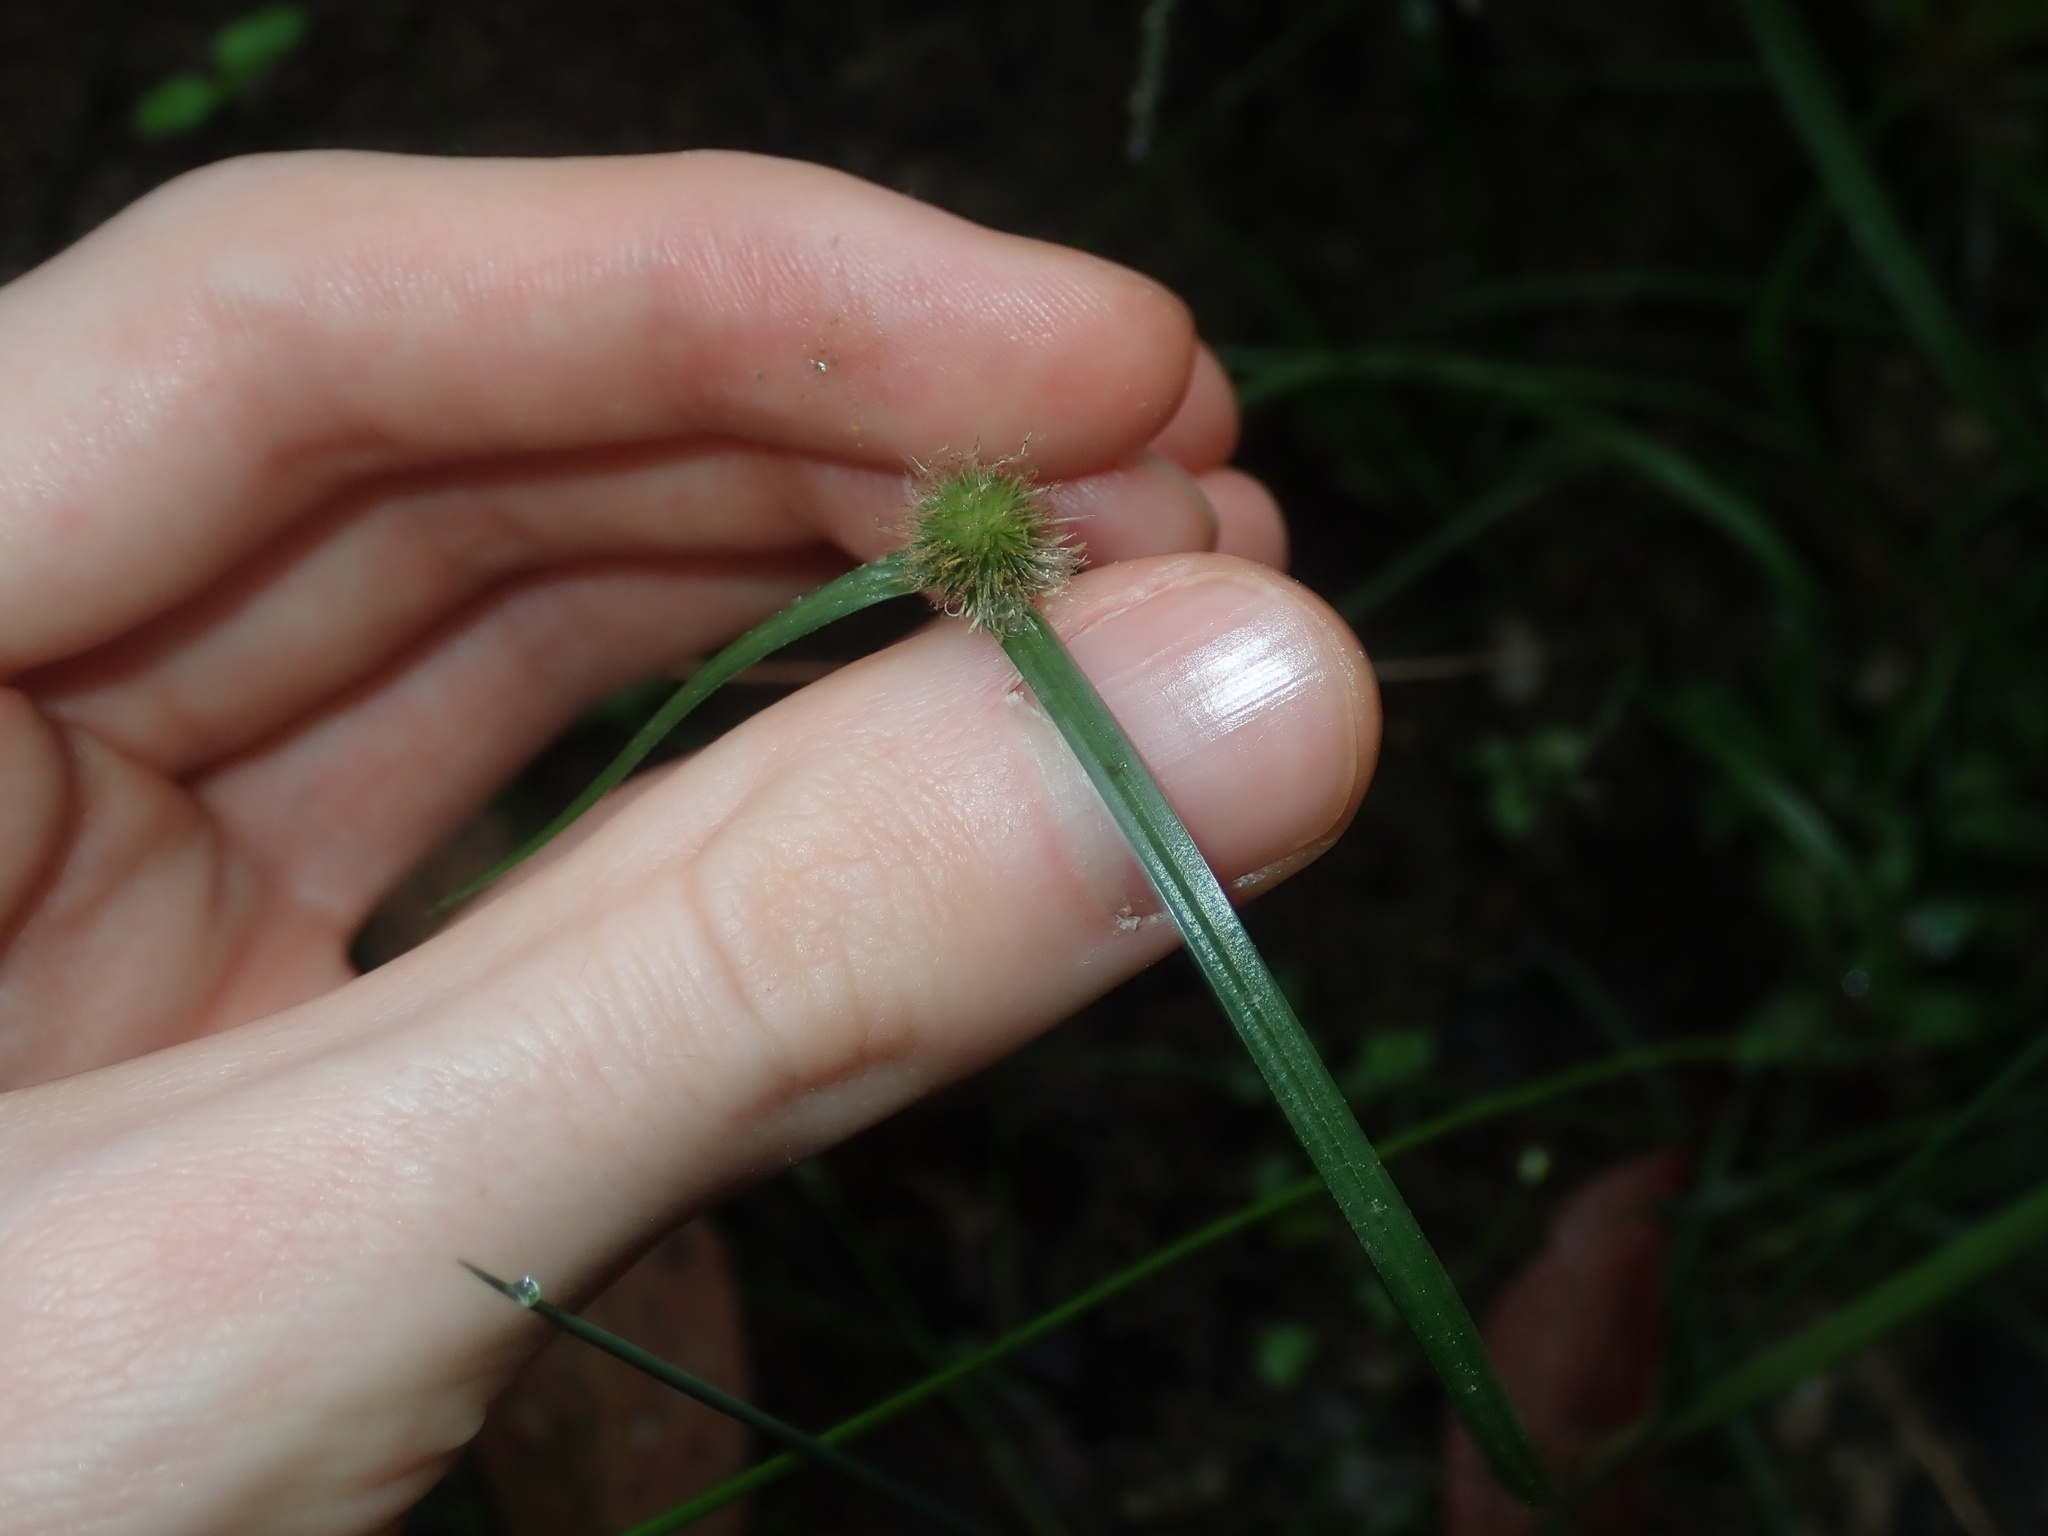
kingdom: Plantae
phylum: Tracheophyta
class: Liliopsida
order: Poales
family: Cyperaceae
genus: Cyperus
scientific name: Cyperus brevifolius
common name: Globe kyllinga
